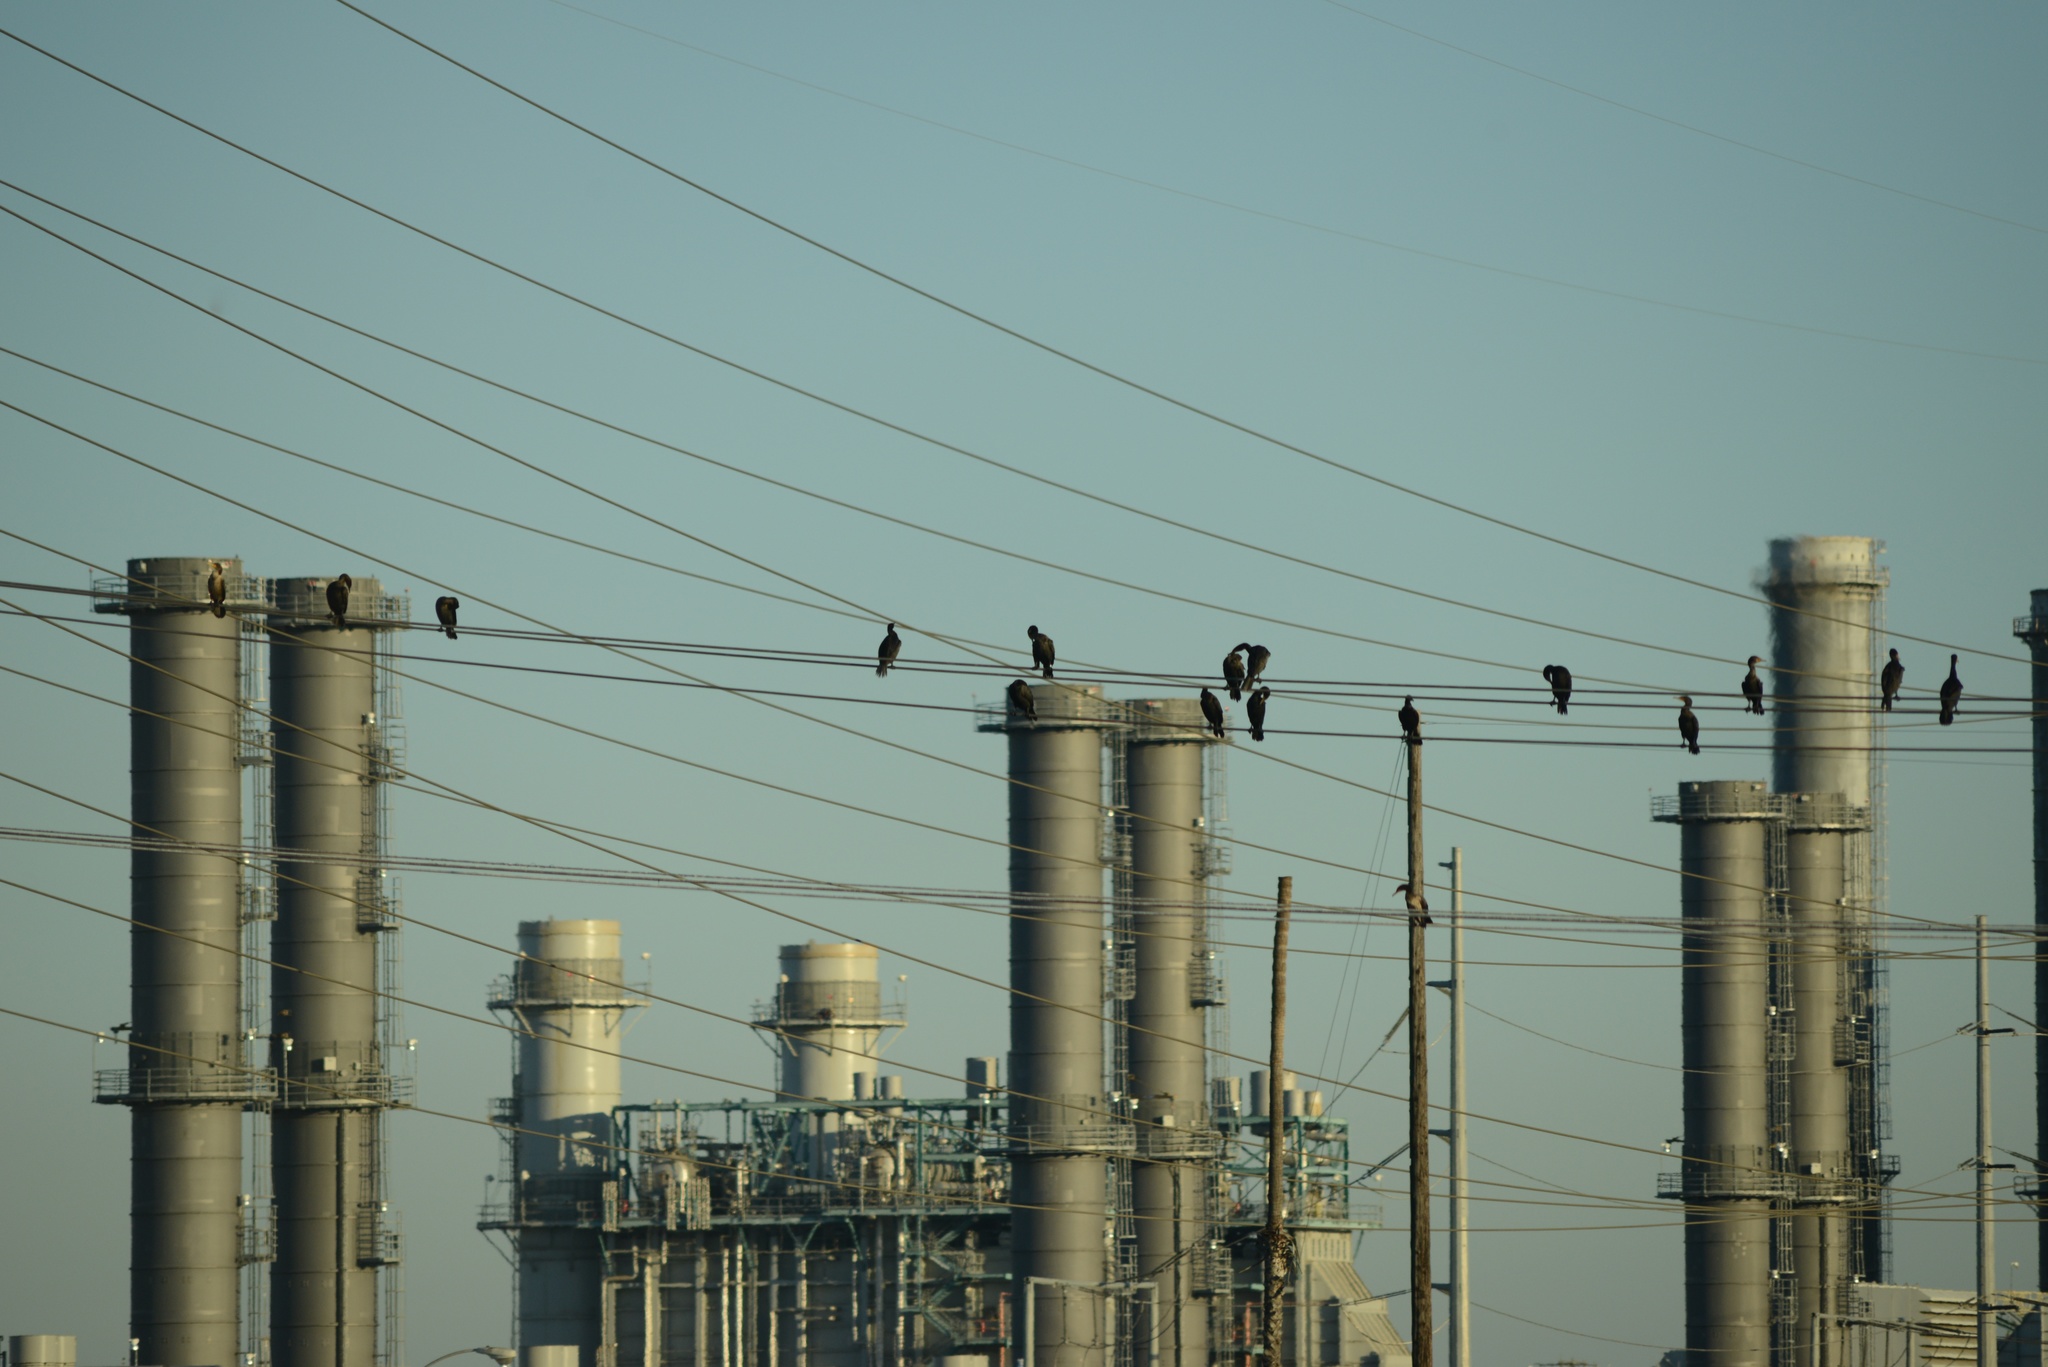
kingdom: Animalia
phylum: Chordata
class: Aves
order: Suliformes
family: Phalacrocoracidae
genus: Phalacrocorax
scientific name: Phalacrocorax auritus
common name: Double-crested cormorant
